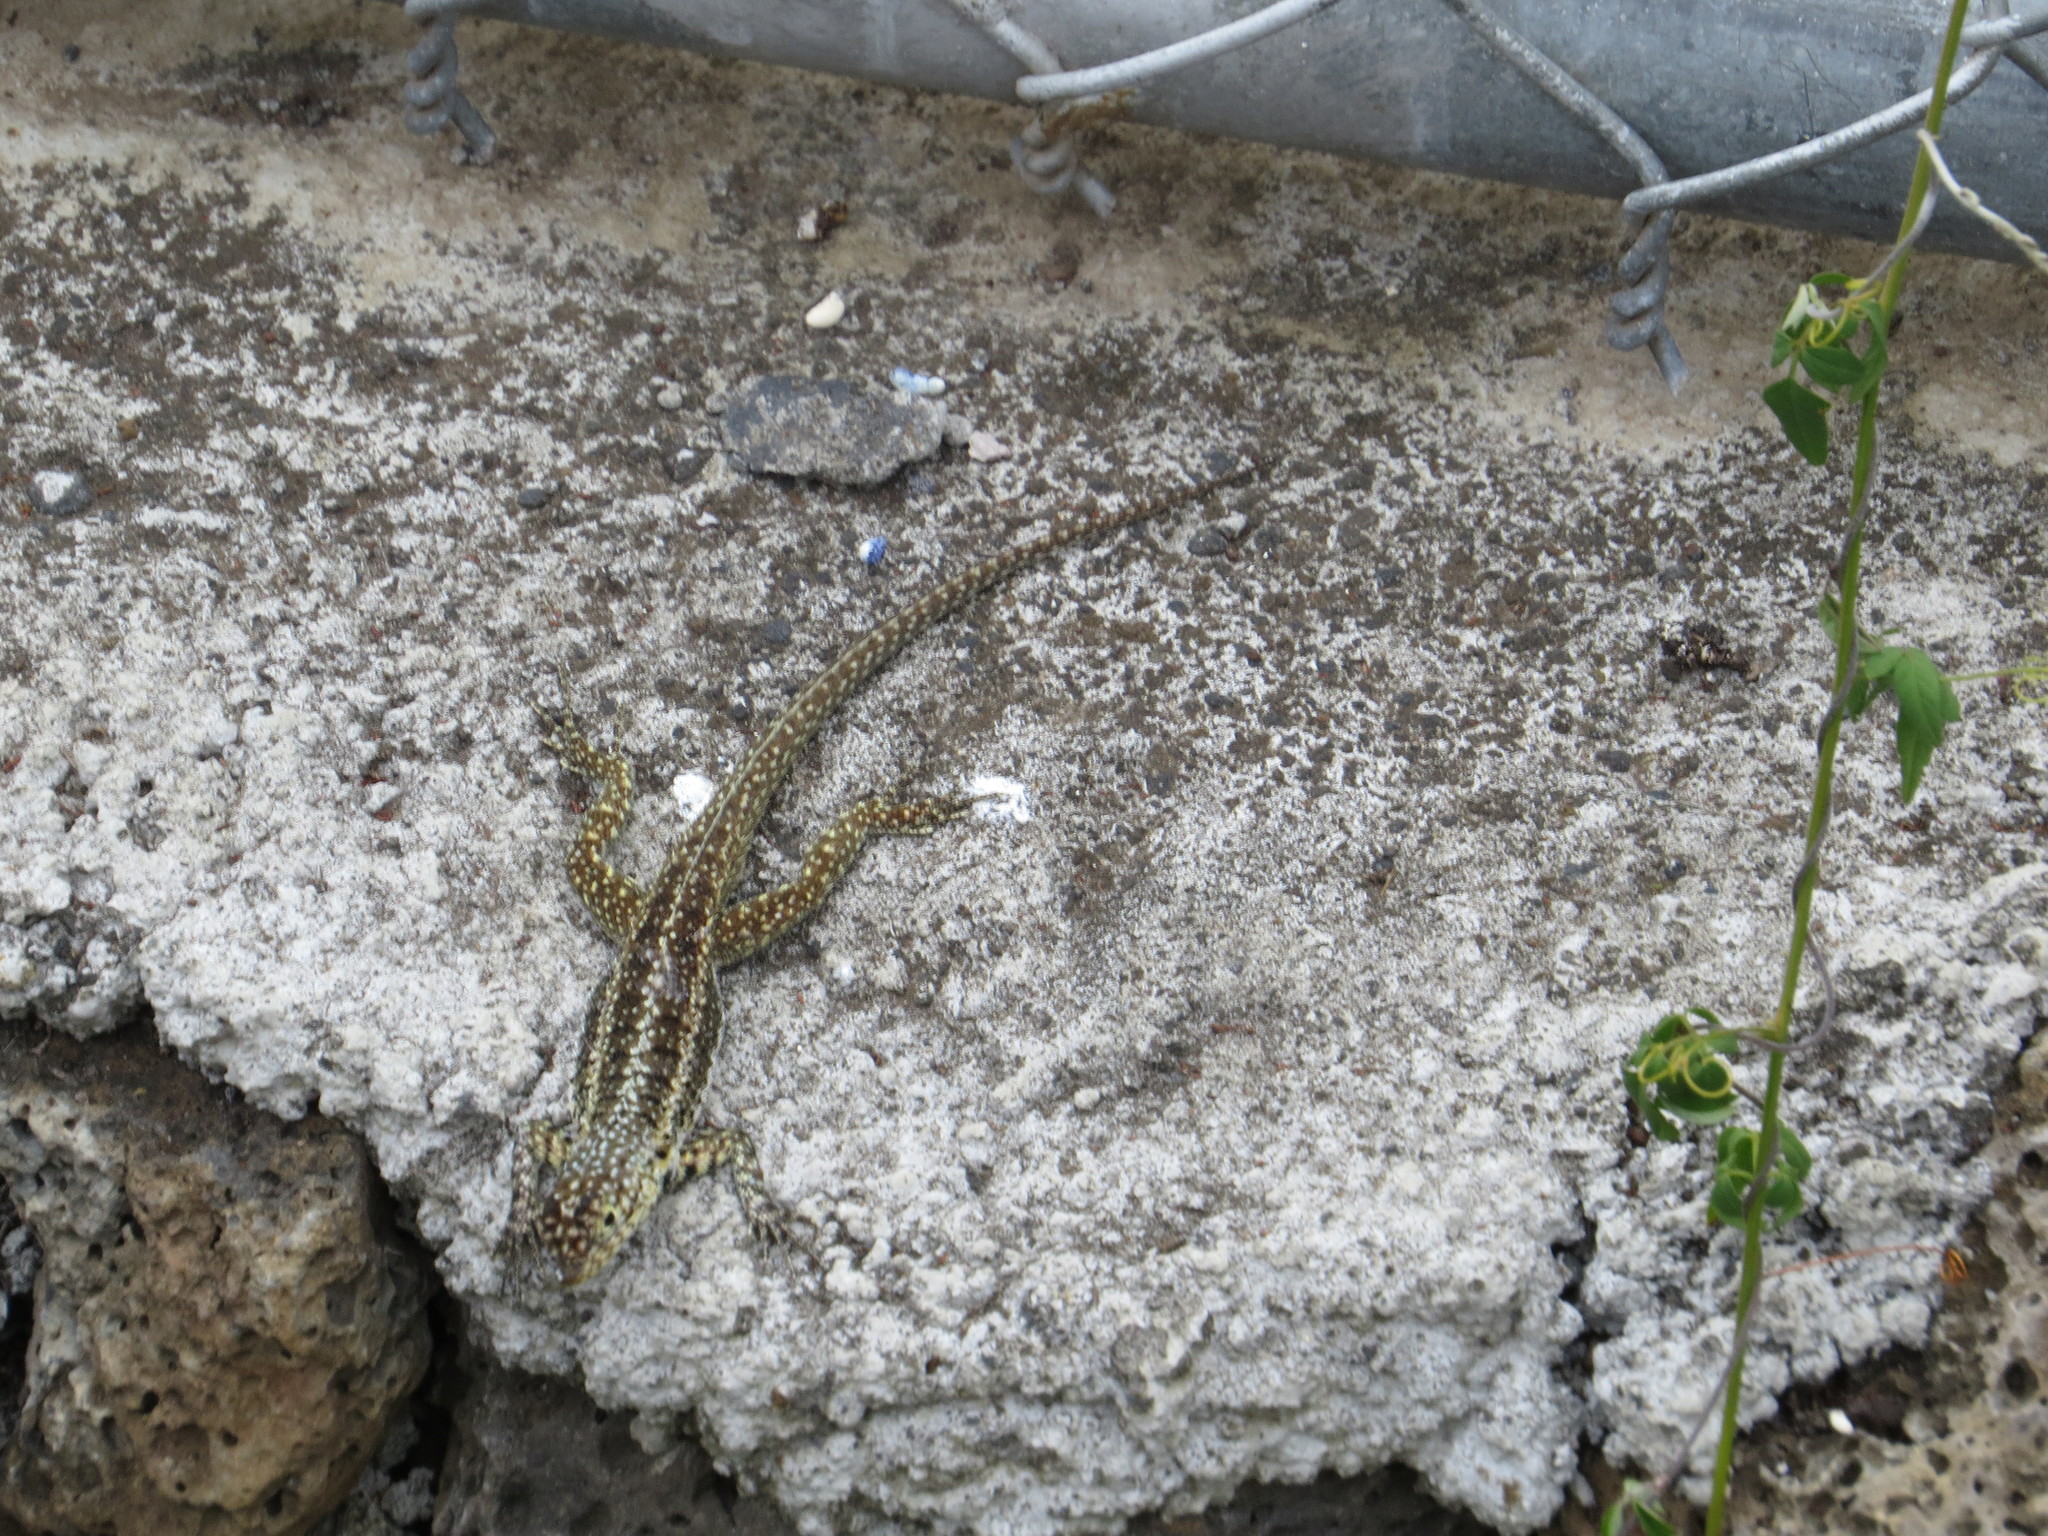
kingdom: Animalia
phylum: Chordata
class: Squamata
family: Tropiduridae
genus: Microlophus
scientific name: Microlophus indefatigabilis
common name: Galapagos lava lizard
